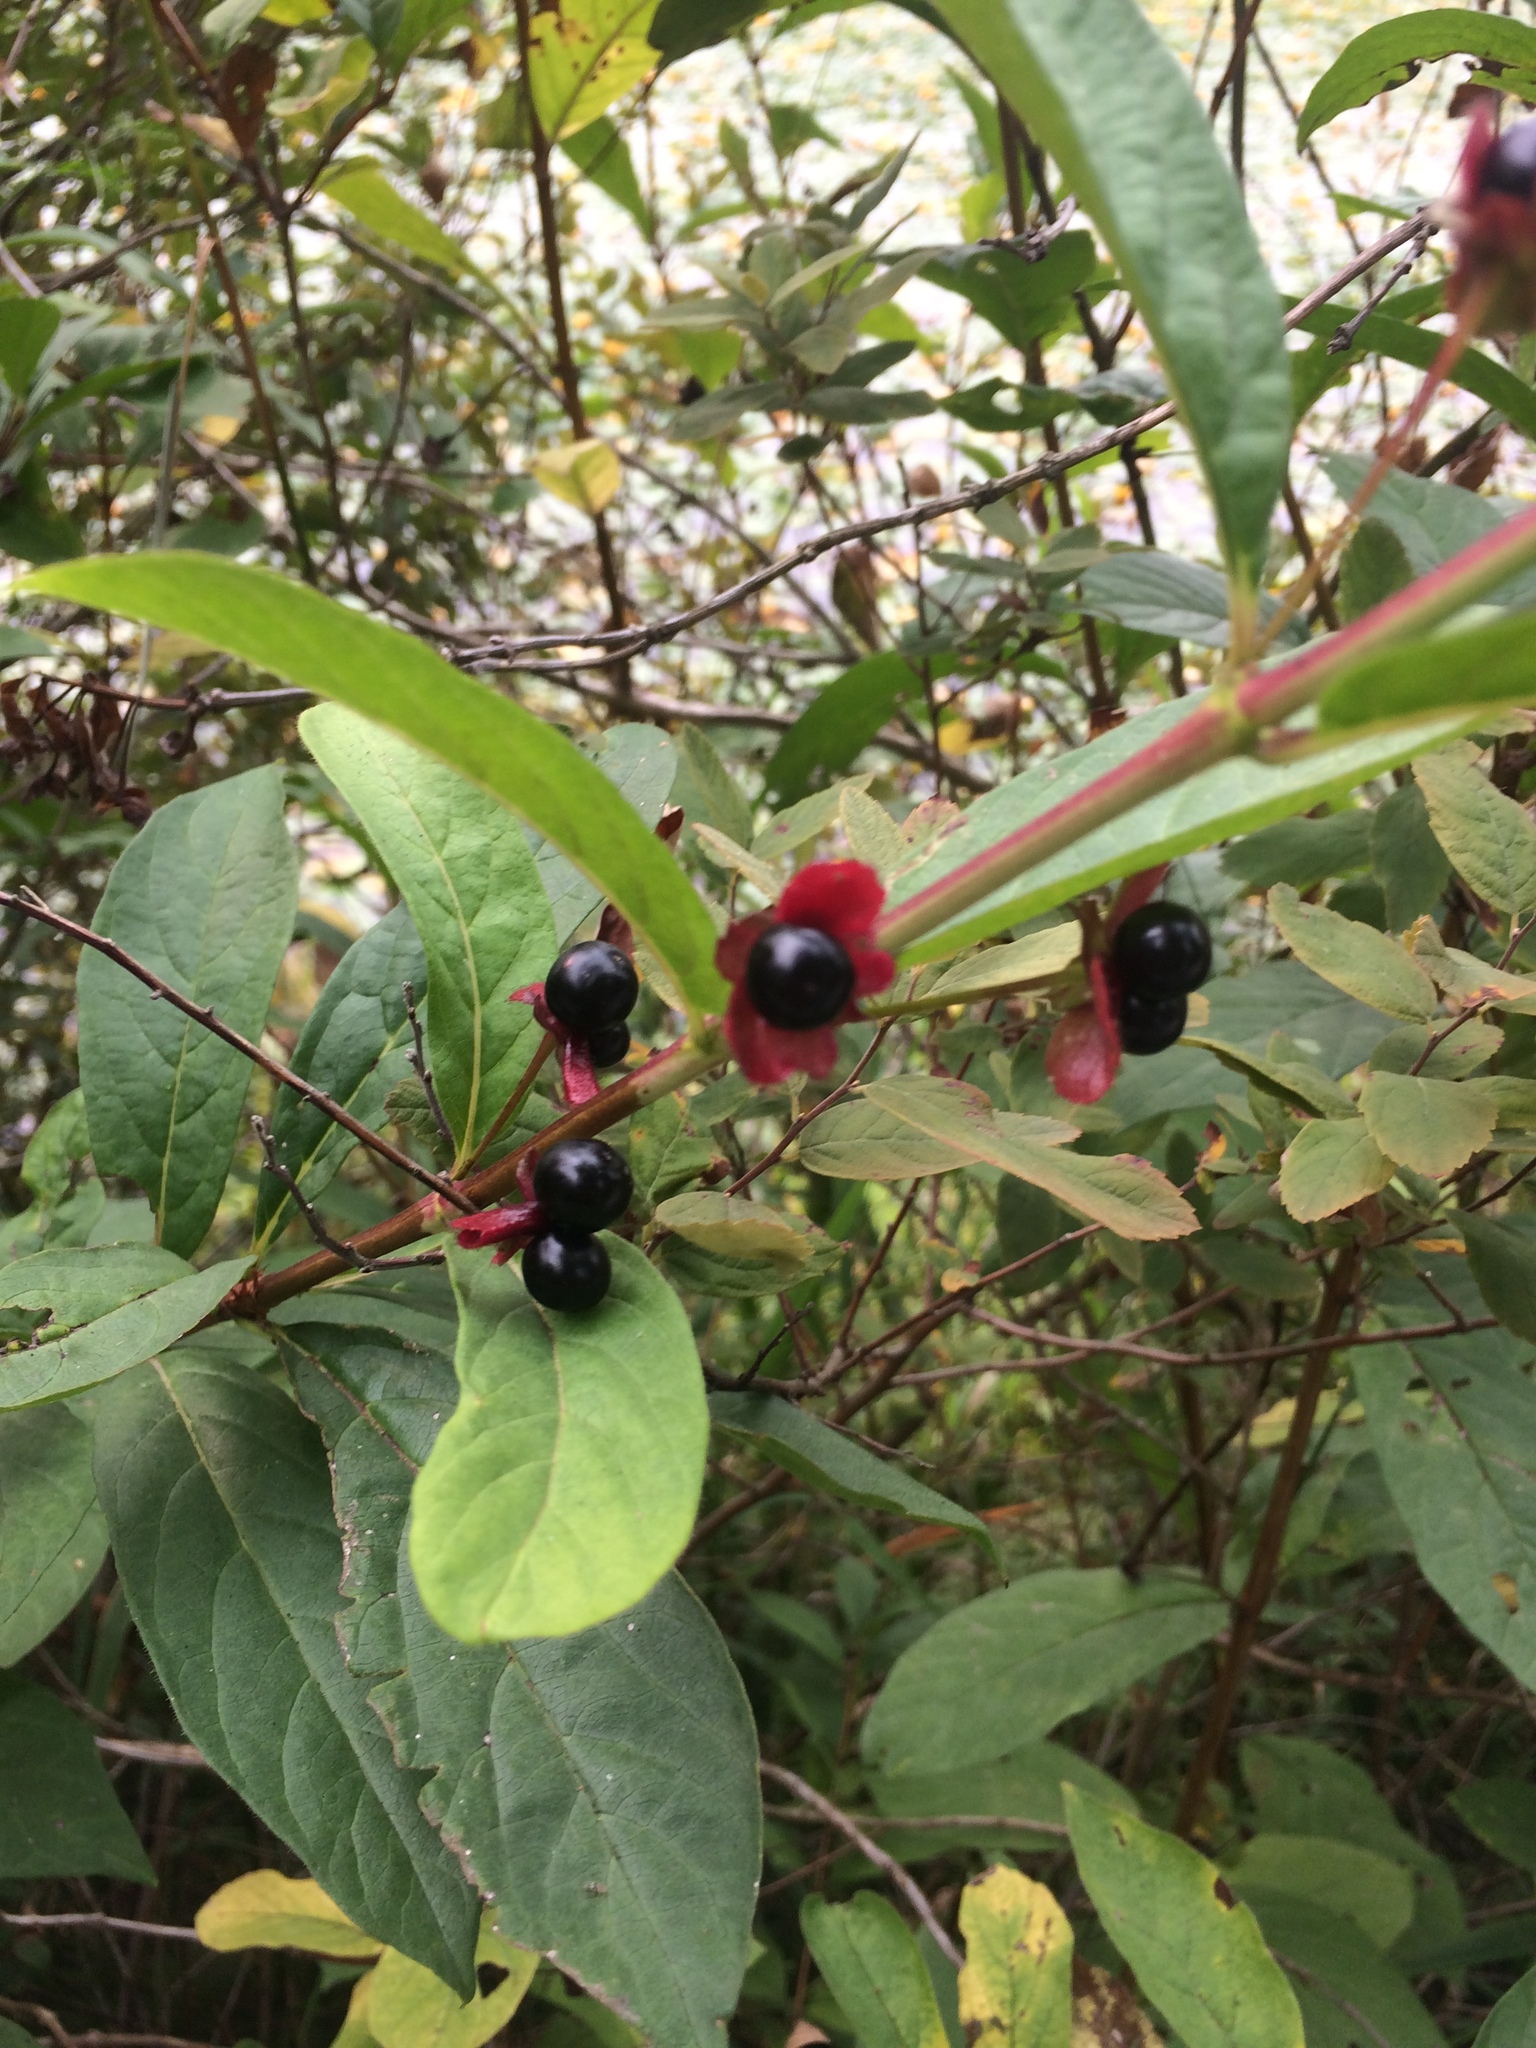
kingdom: Plantae
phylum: Tracheophyta
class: Magnoliopsida
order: Dipsacales
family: Caprifoliaceae
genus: Lonicera
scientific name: Lonicera involucrata
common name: Californian honeysuckle
